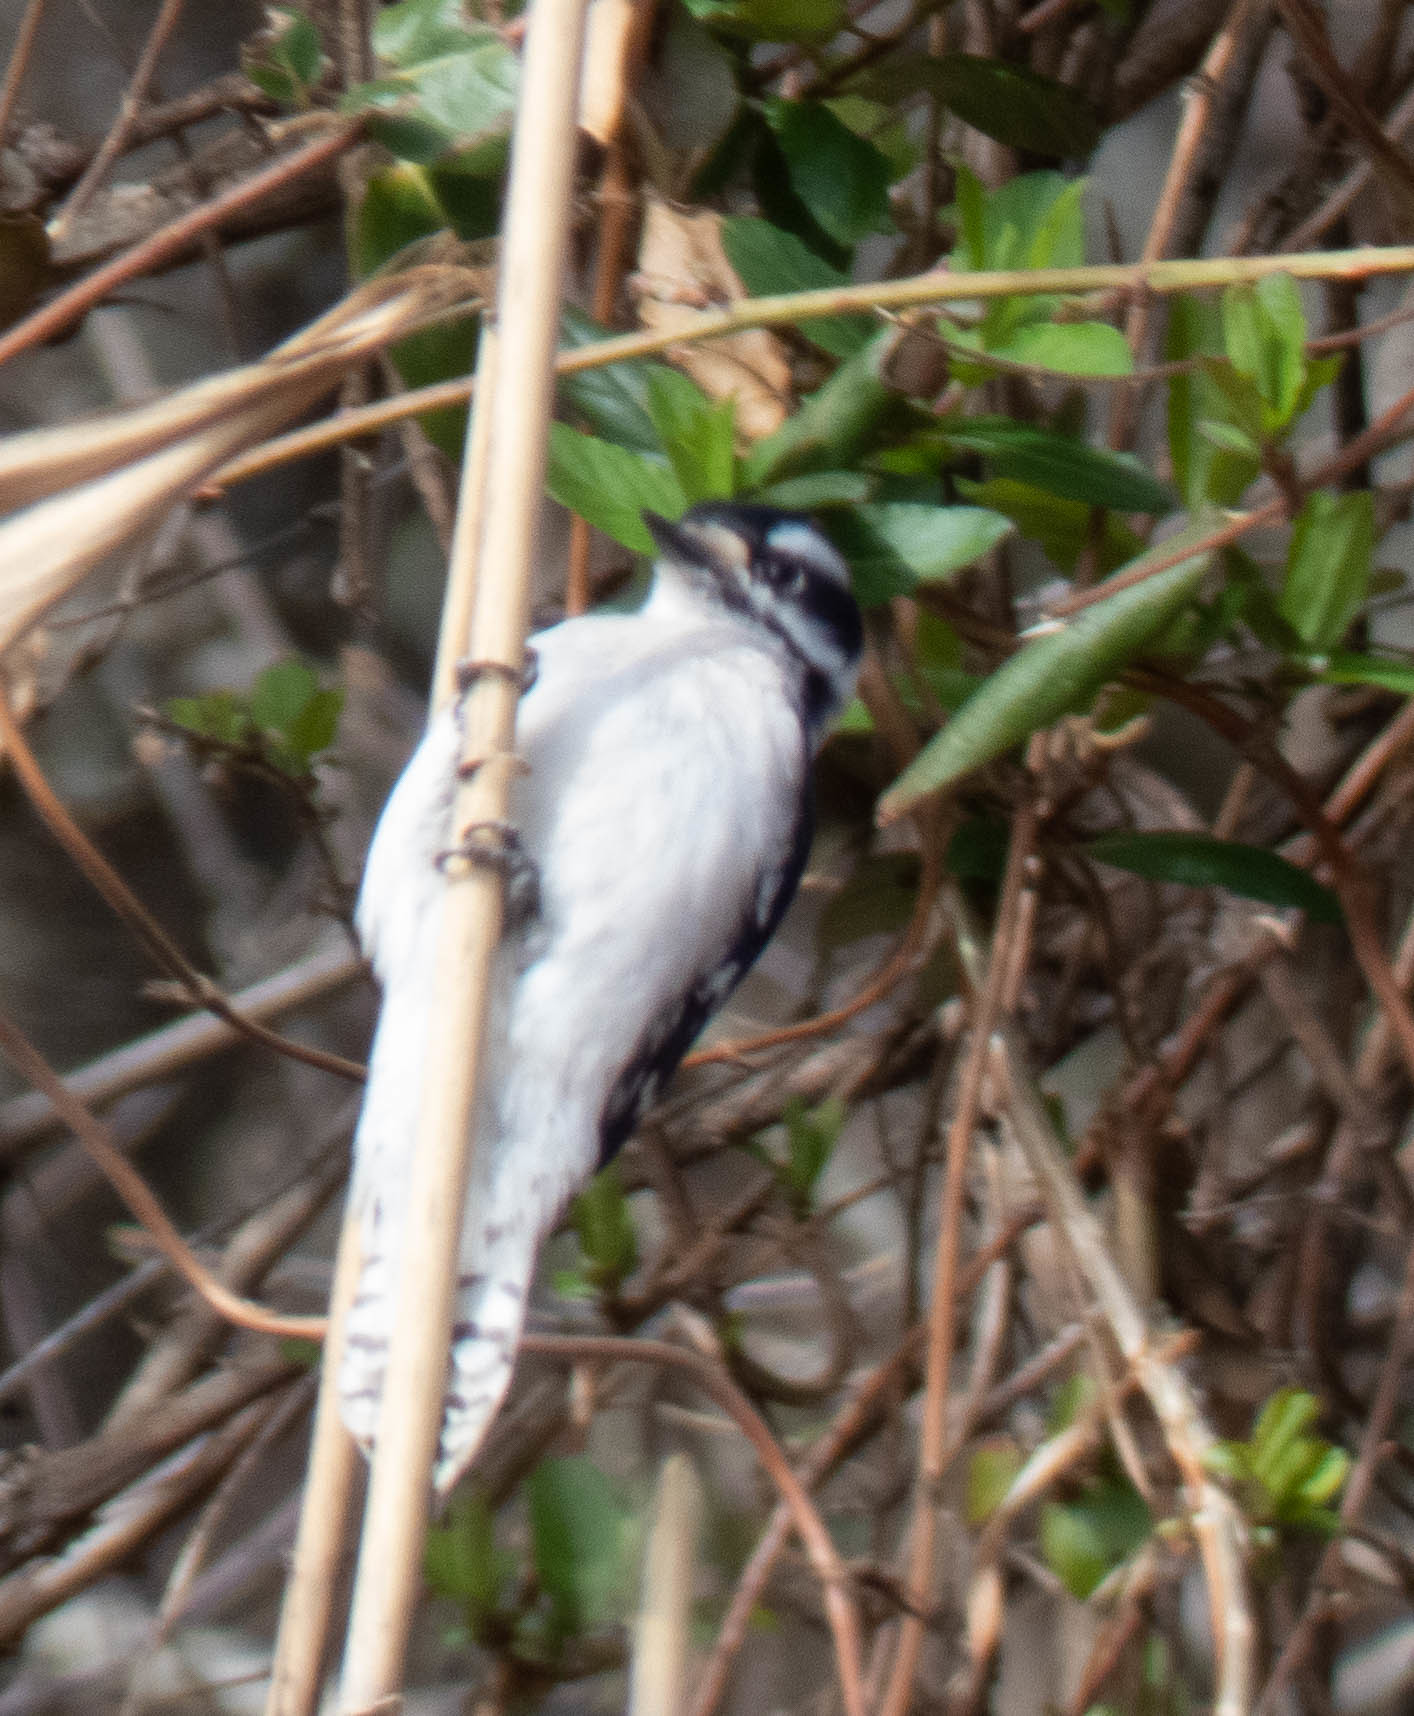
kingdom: Animalia
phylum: Chordata
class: Aves
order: Piciformes
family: Picidae
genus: Dryobates
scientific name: Dryobates pubescens
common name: Downy woodpecker
